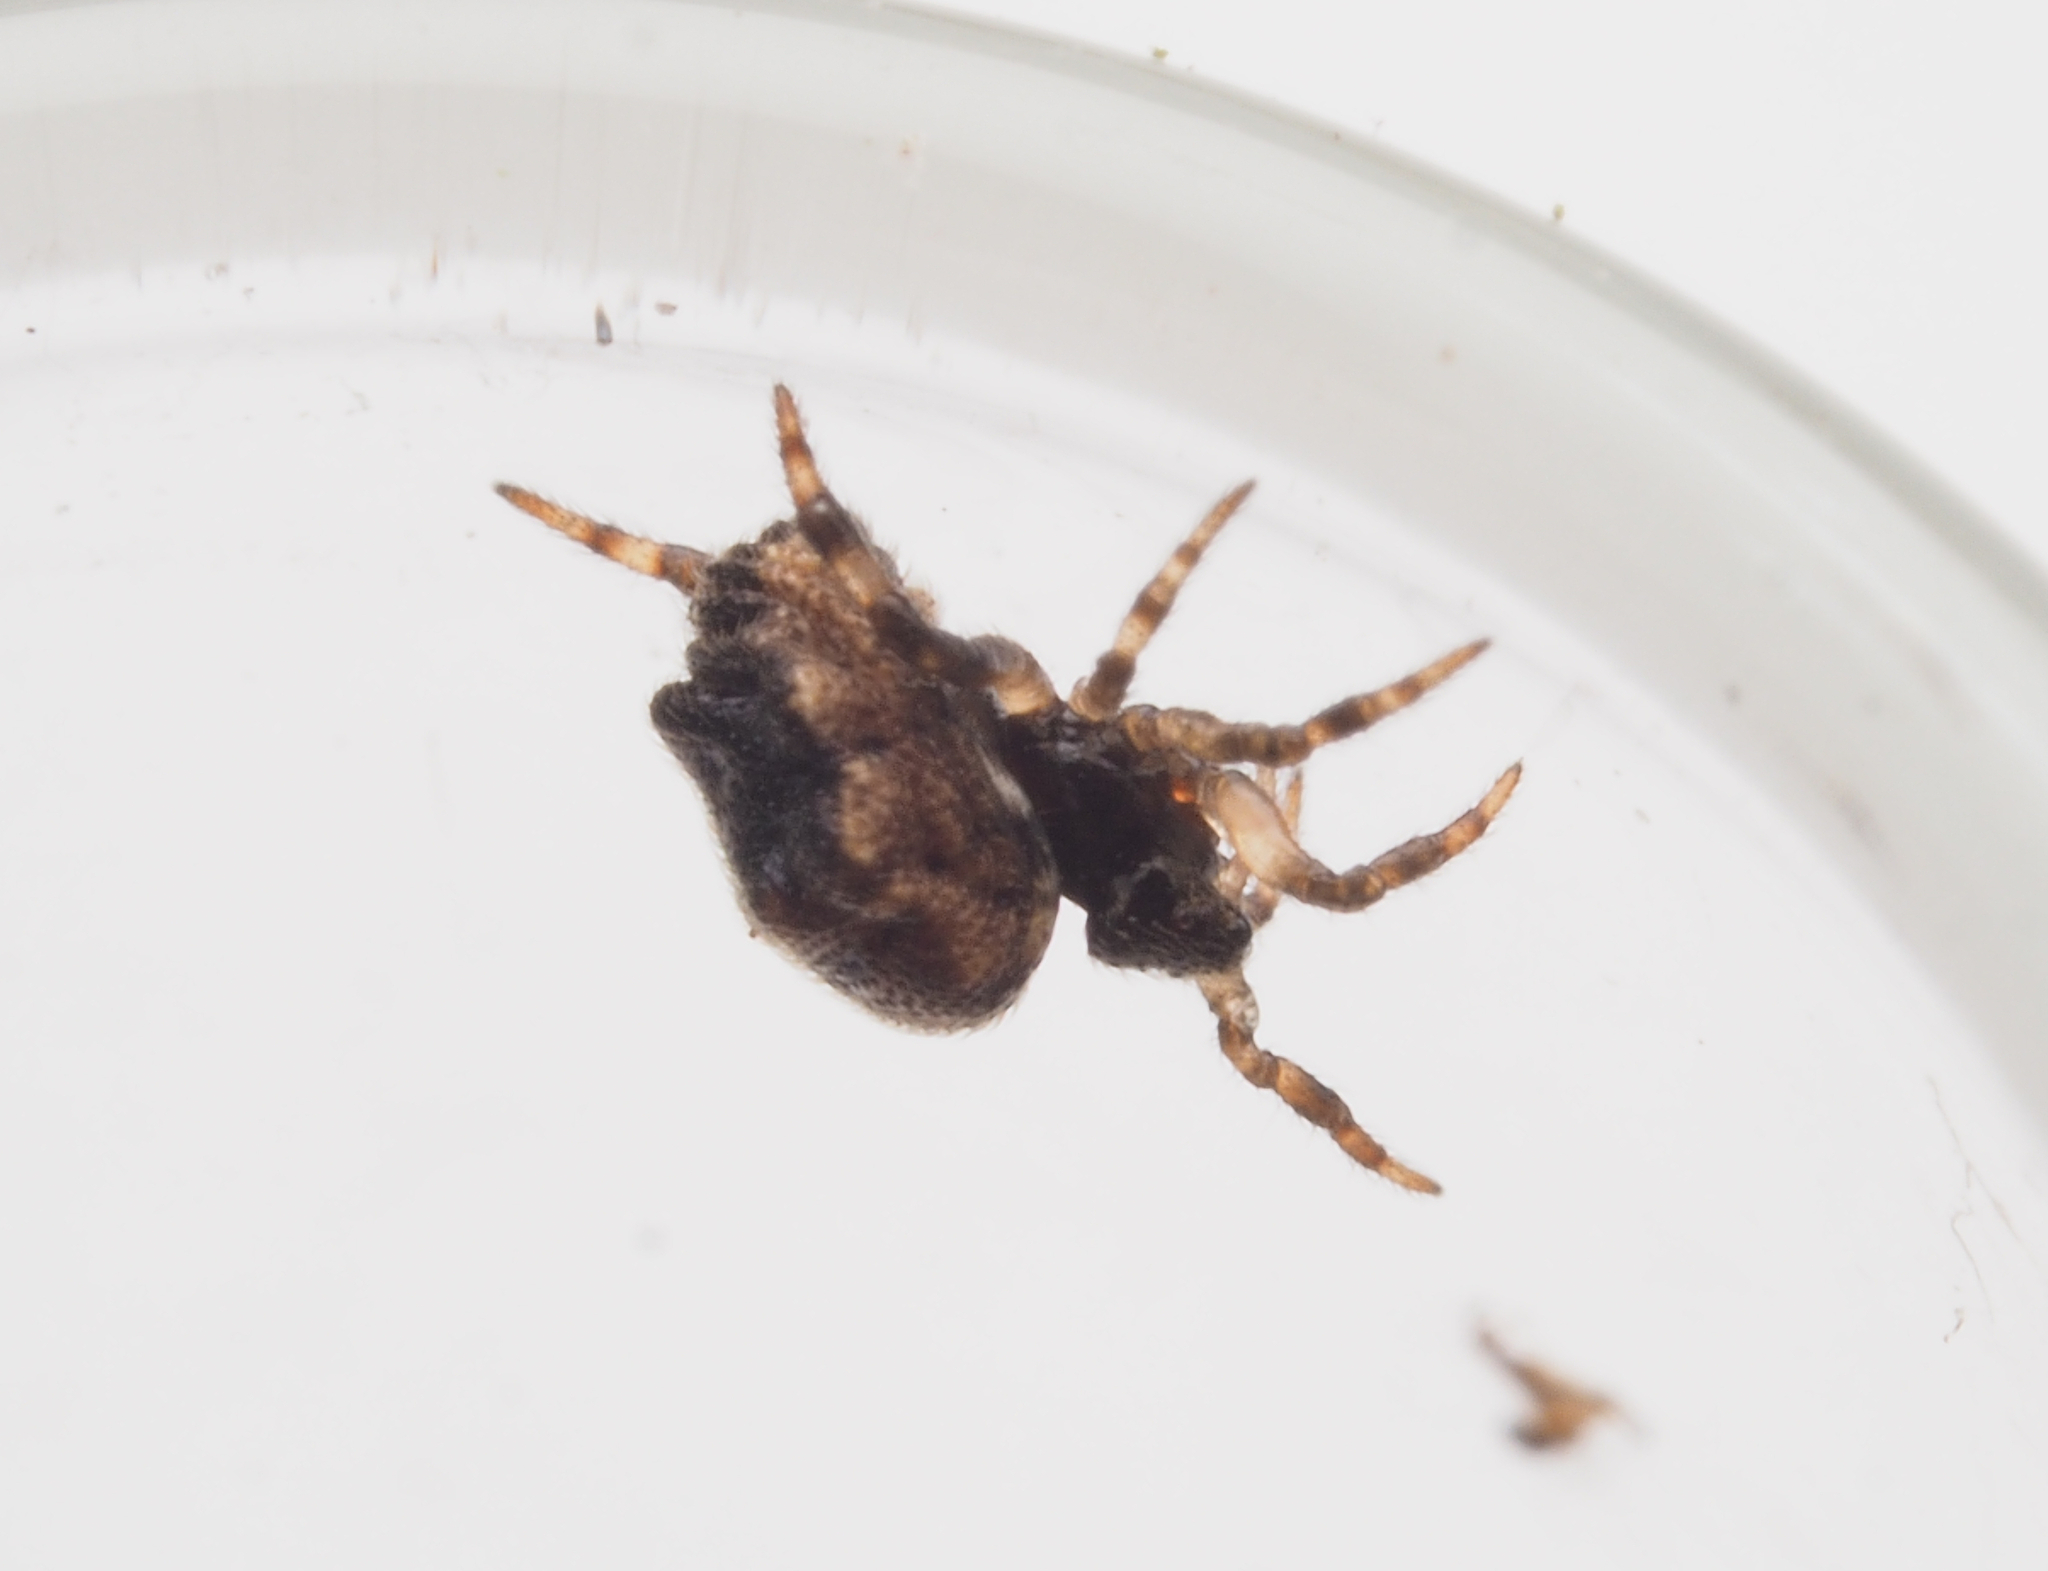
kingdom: Animalia
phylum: Arthropoda
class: Arachnida
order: Araneae
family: Theridiidae
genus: Phoroncidia
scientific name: Phoroncidia
